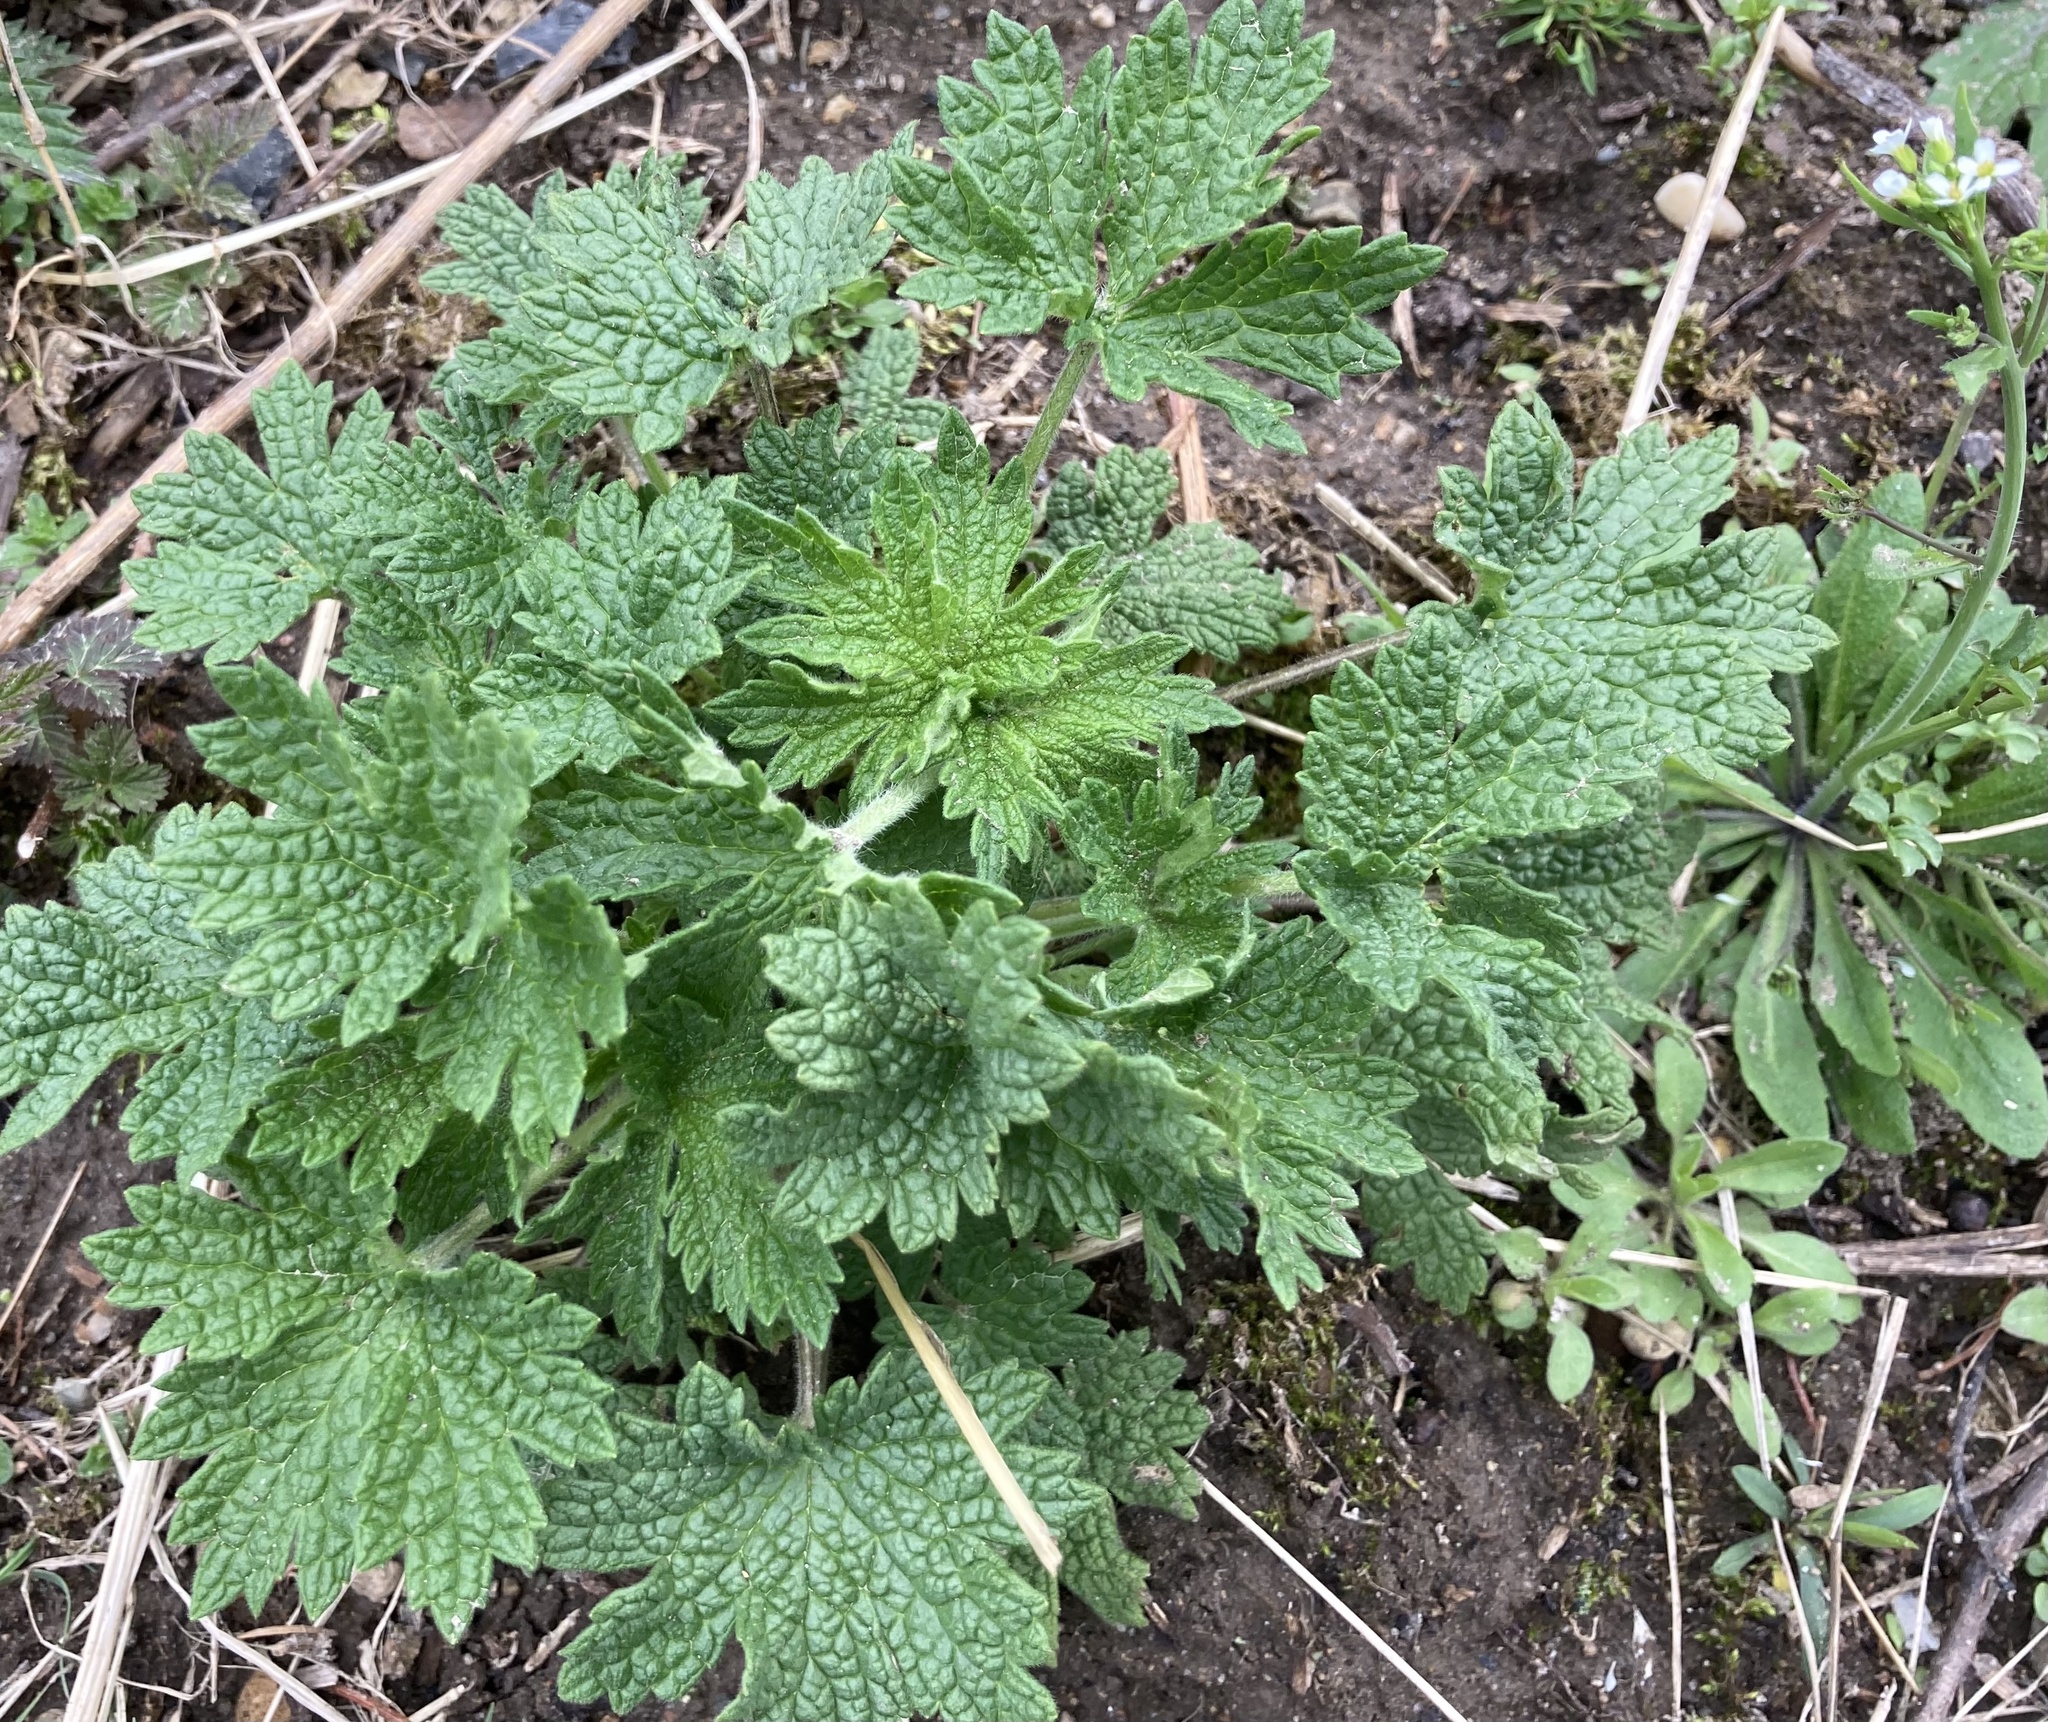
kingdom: Plantae
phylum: Tracheophyta
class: Magnoliopsida
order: Lamiales
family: Lamiaceae
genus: Leonurus
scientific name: Leonurus cardiaca
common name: Motherwort
